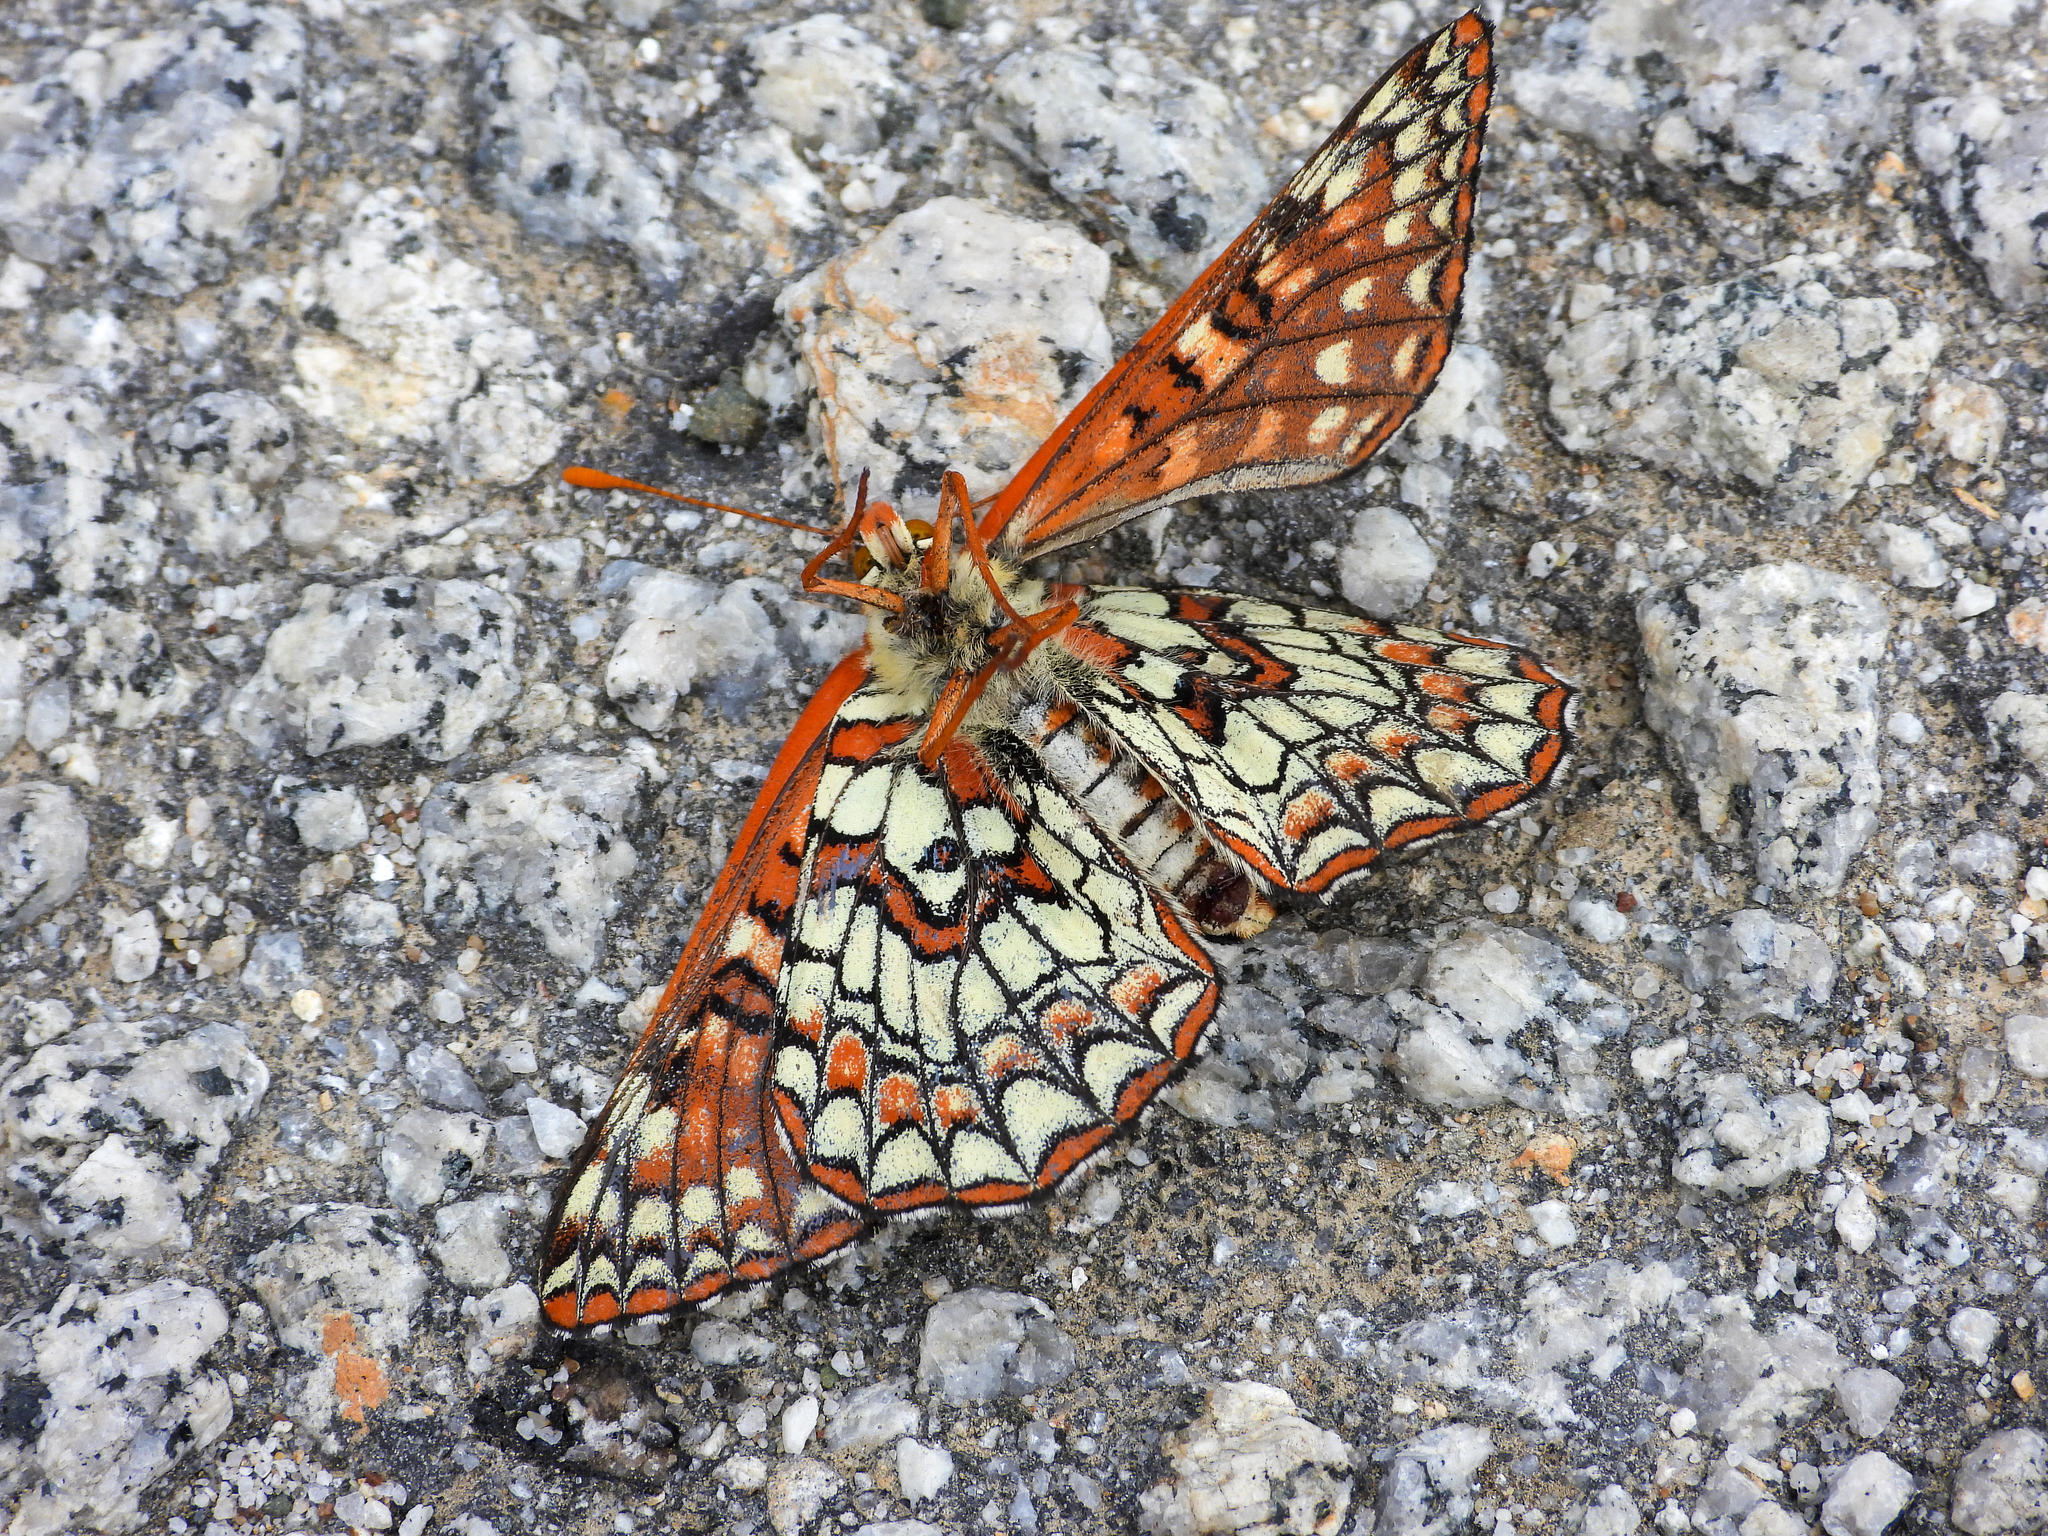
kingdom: Animalia
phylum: Arthropoda
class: Insecta
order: Lepidoptera
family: Nymphalidae
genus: Occidryas
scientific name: Occidryas chalcedona
